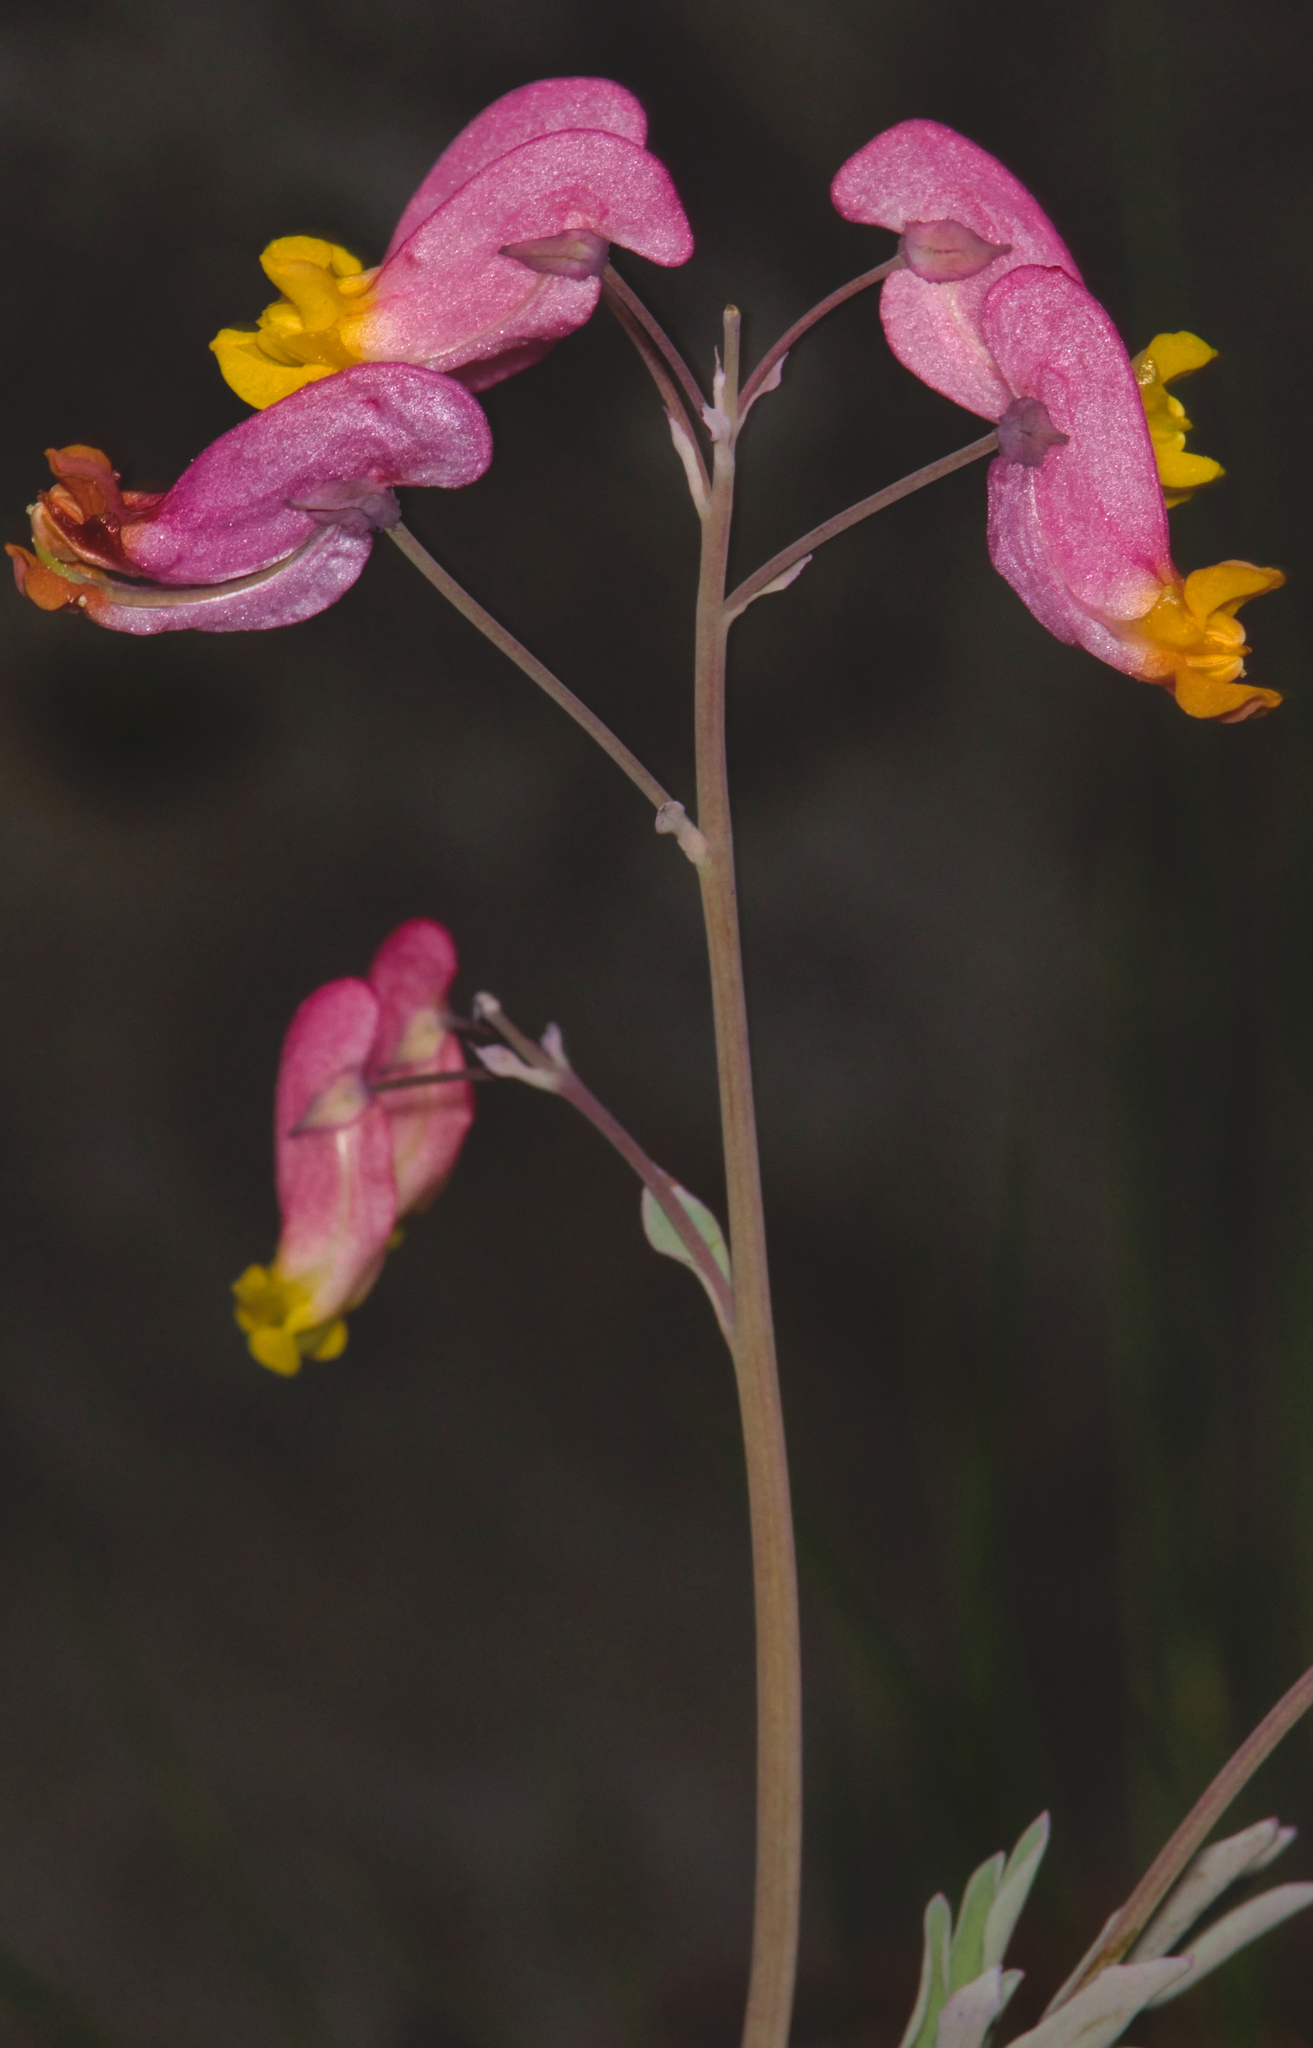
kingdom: Plantae
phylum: Tracheophyta
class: Magnoliopsida
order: Ranunculales
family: Papaveraceae
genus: Capnoides
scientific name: Capnoides sempervirens
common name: Rock harlequin
